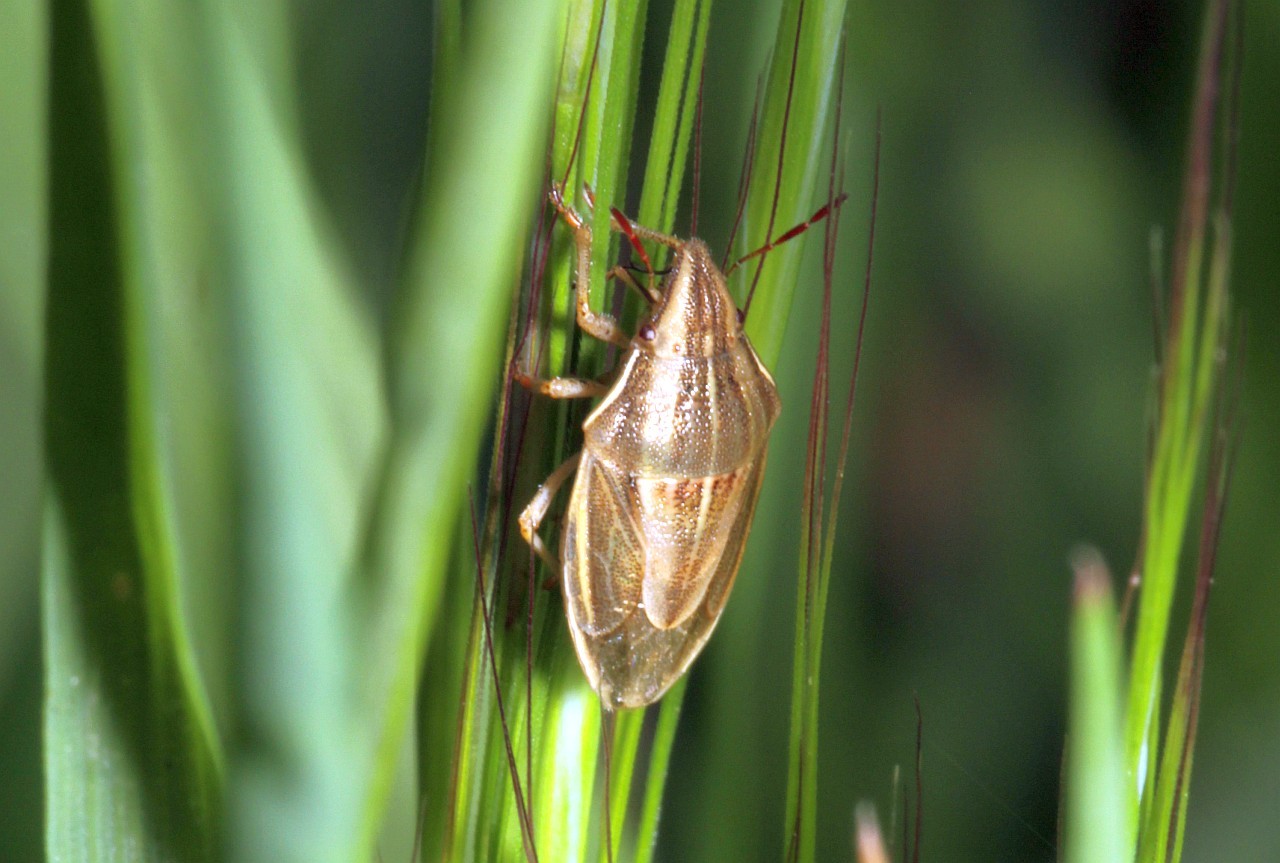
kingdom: Animalia
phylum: Arthropoda
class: Insecta
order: Hemiptera
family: Pentatomidae
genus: Aelia
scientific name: Aelia acuminata
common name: Bishop's mitre
